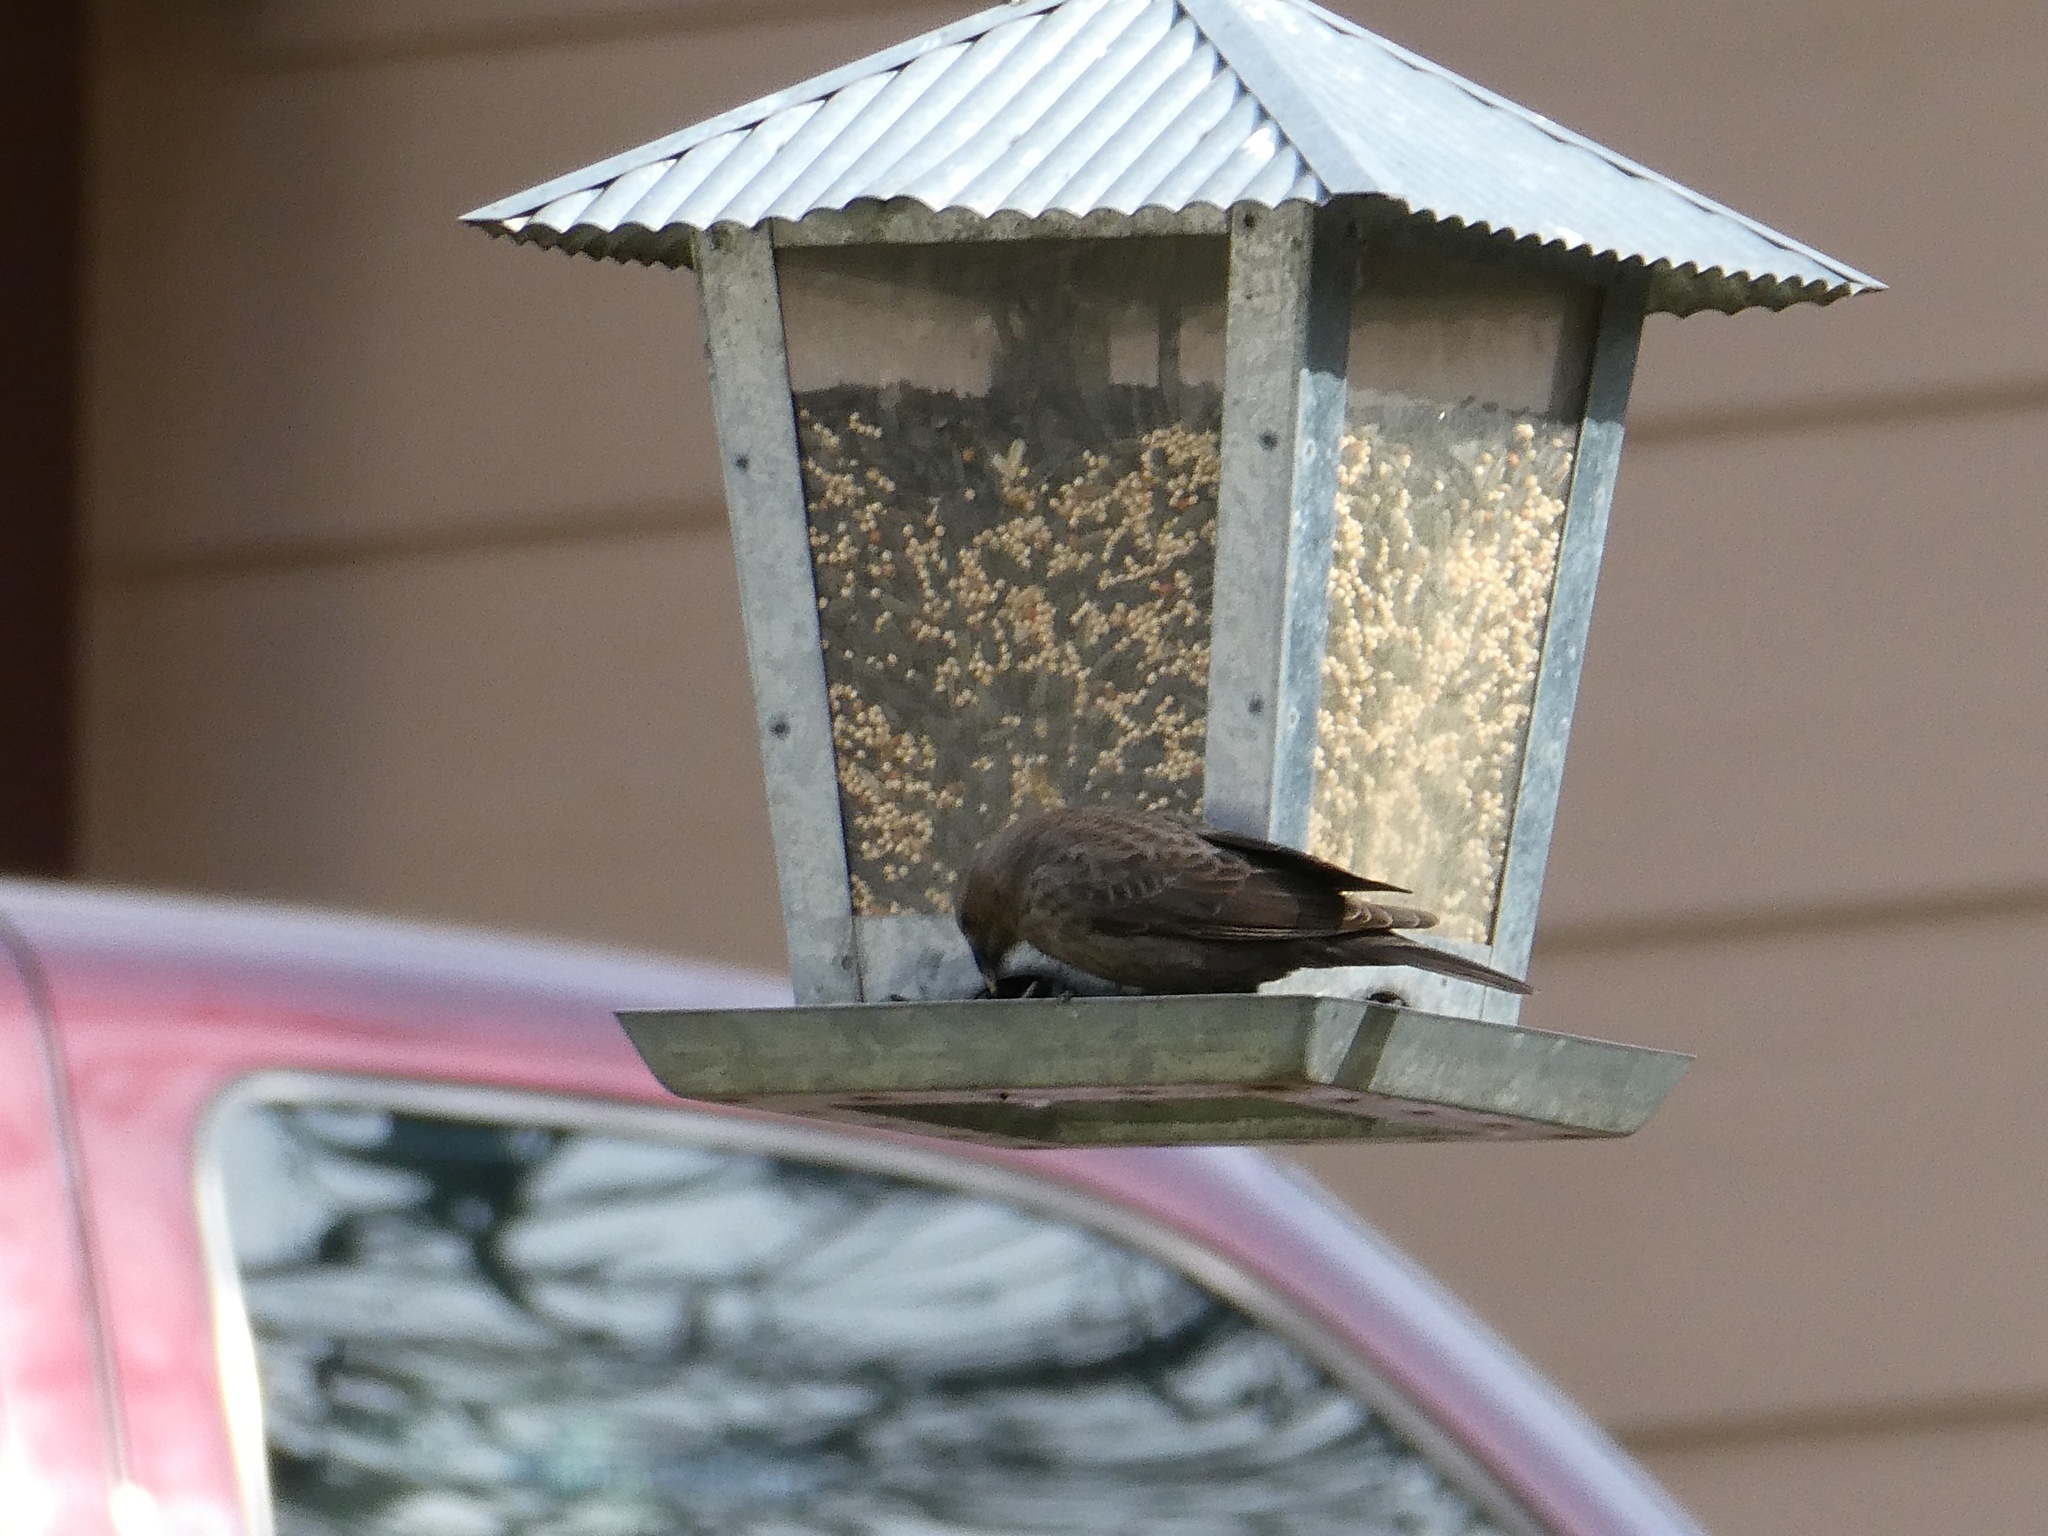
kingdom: Animalia
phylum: Chordata
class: Aves
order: Passeriformes
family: Icteridae
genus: Molothrus
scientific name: Molothrus ater
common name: Brown-headed cowbird
